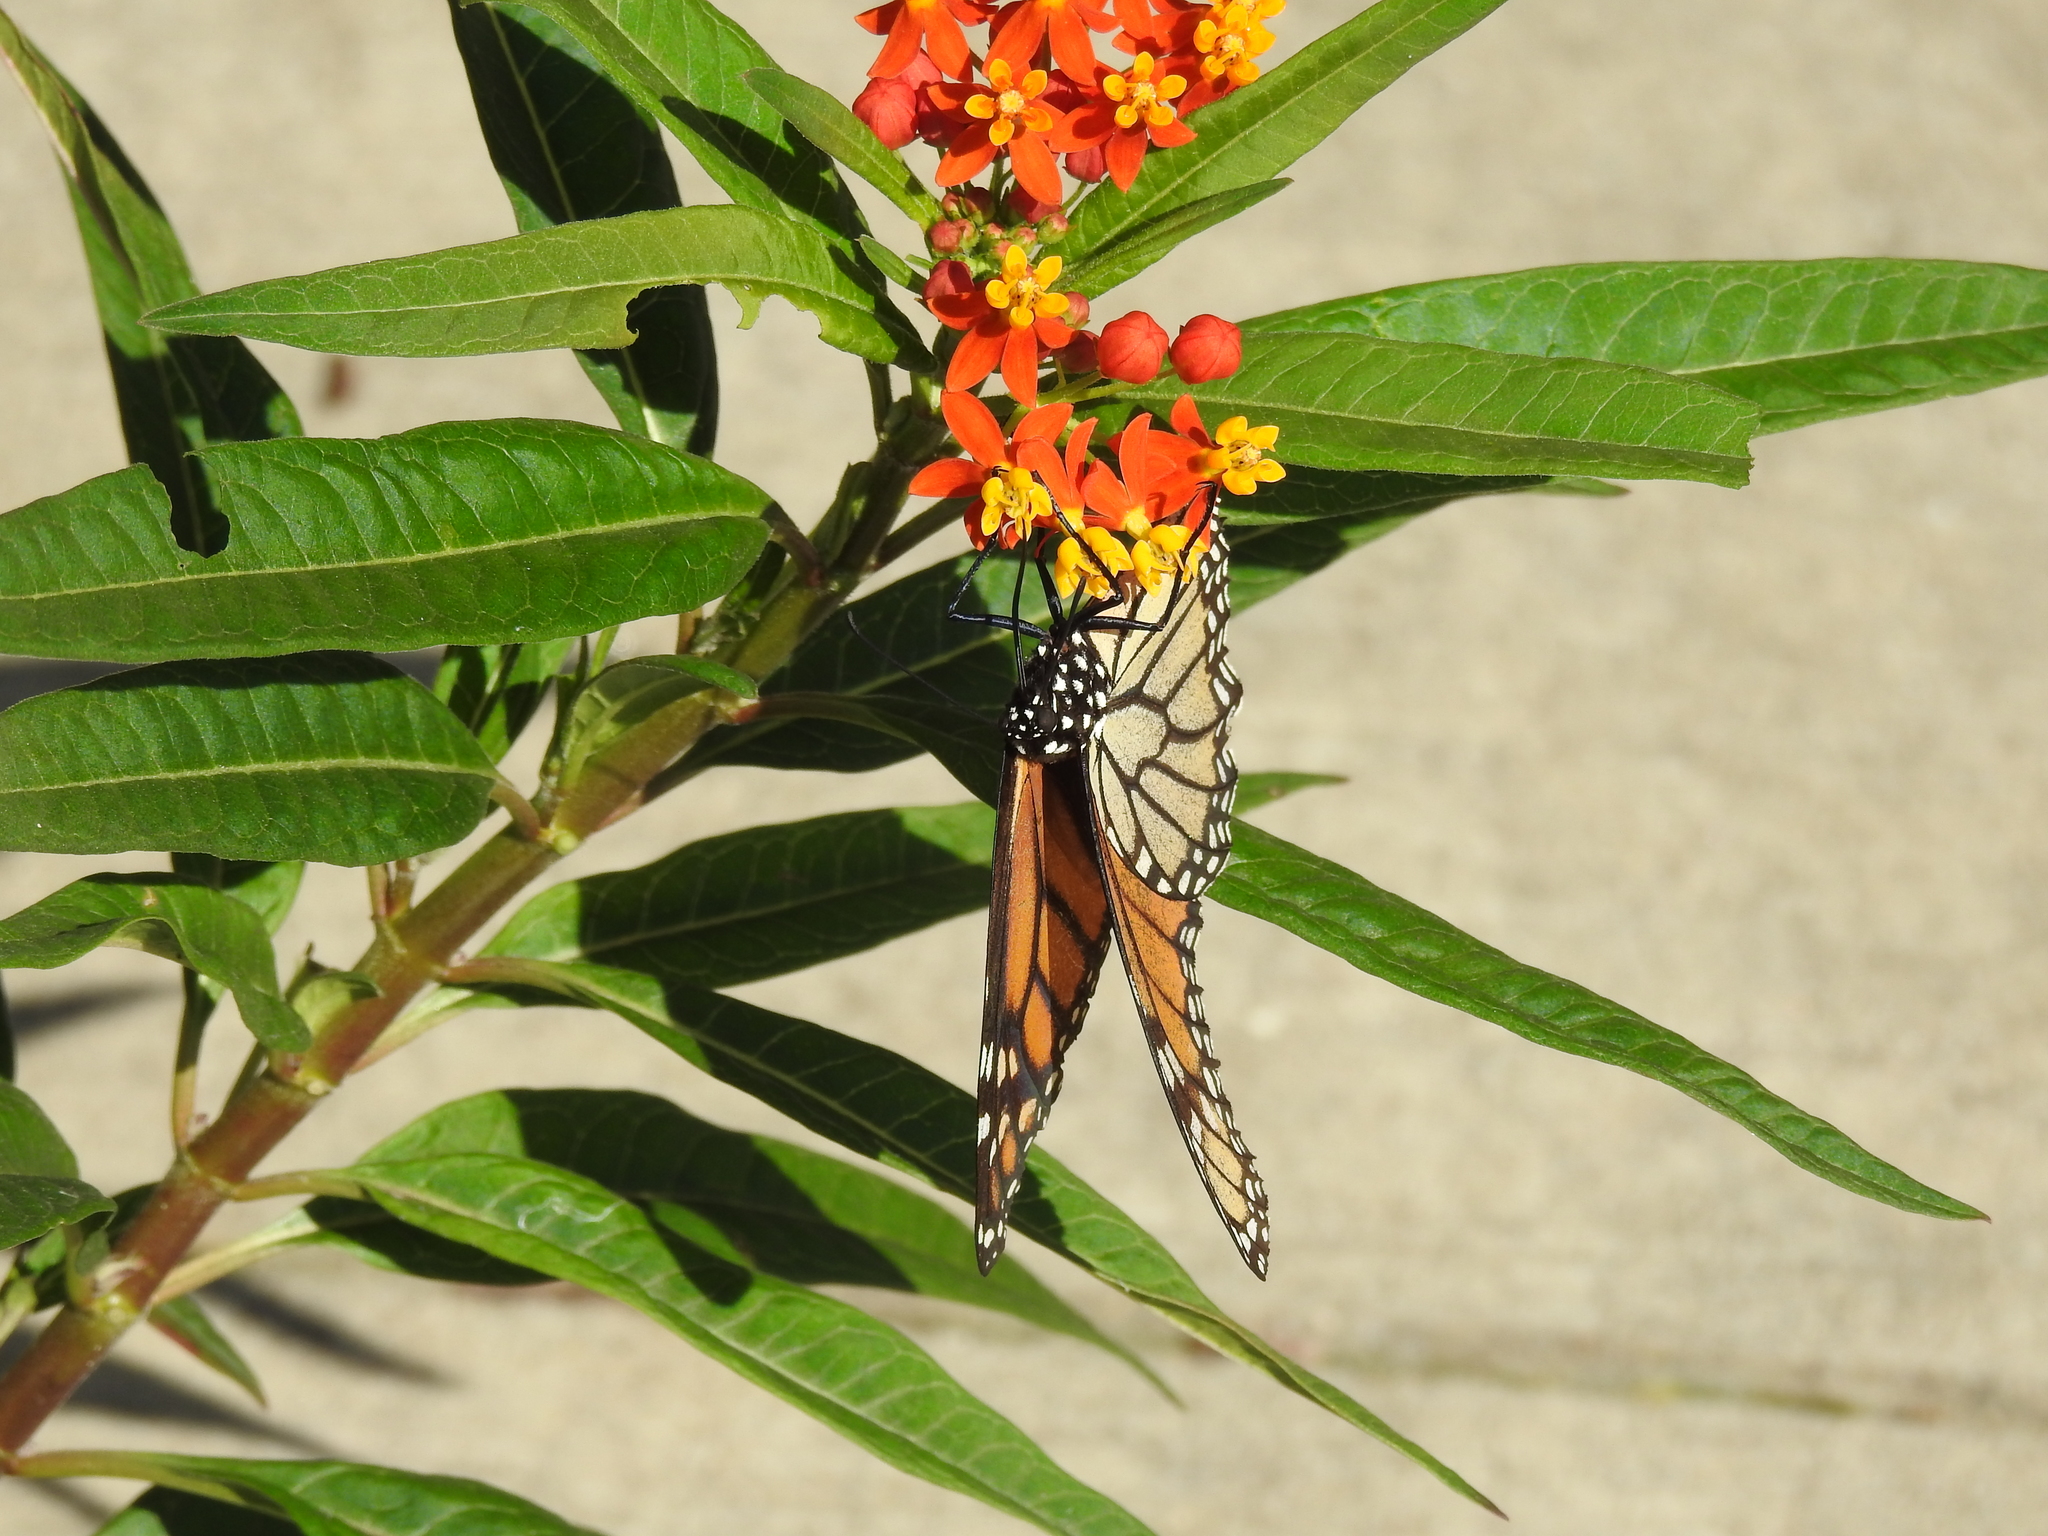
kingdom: Animalia
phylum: Arthropoda
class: Insecta
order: Lepidoptera
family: Nymphalidae
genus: Danaus
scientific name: Danaus plexippus
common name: Monarch
